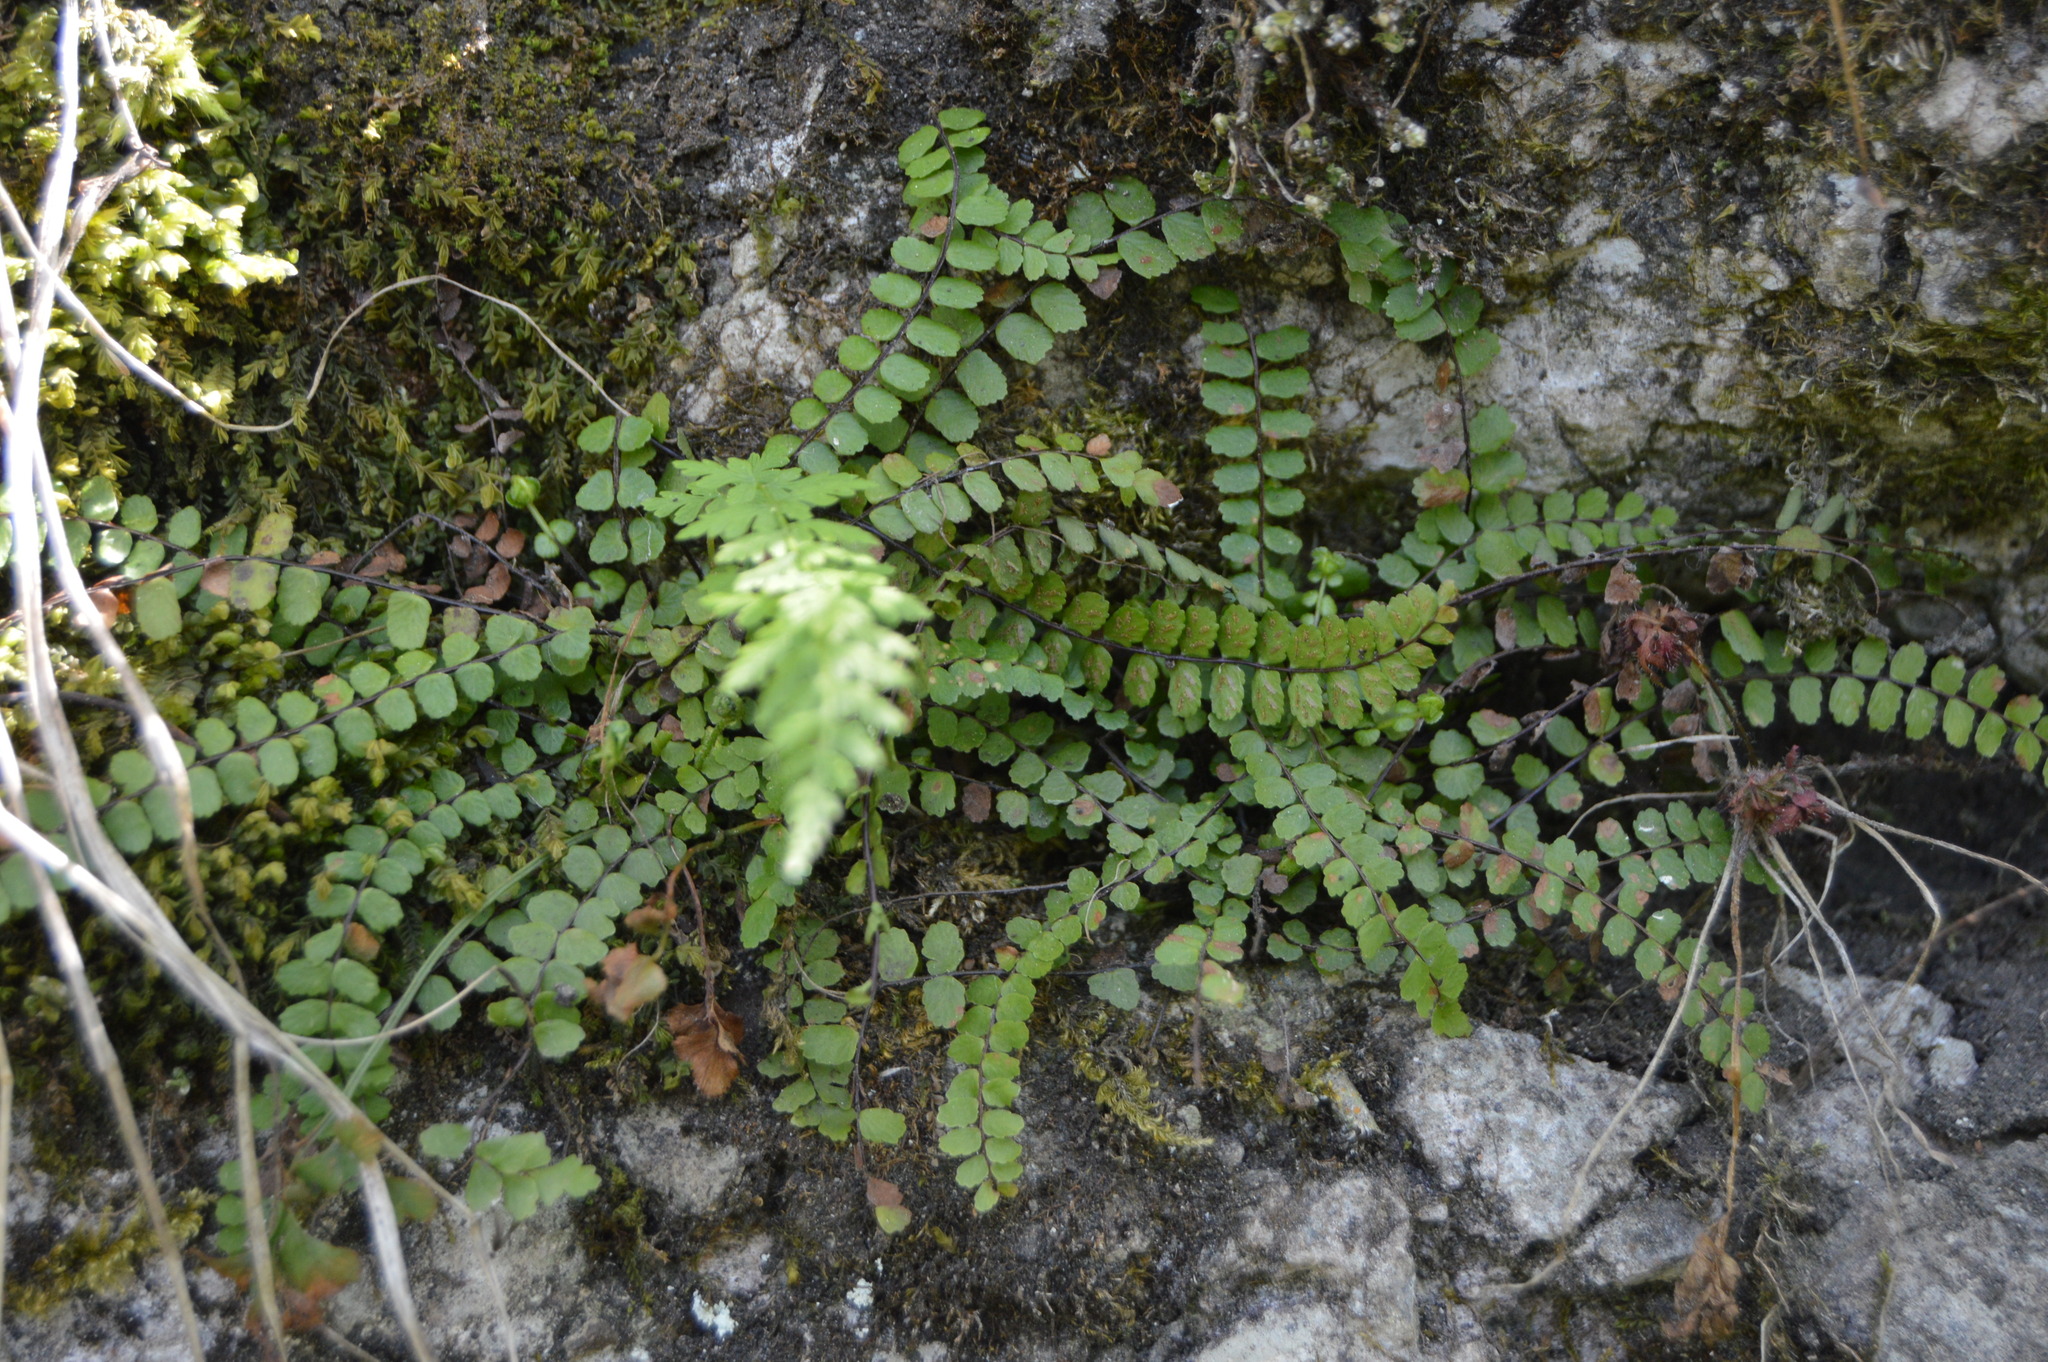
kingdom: Plantae
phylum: Tracheophyta
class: Polypodiopsida
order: Polypodiales
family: Aspleniaceae
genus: Asplenium
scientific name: Asplenium trichomanes
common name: Maidenhair spleenwort
